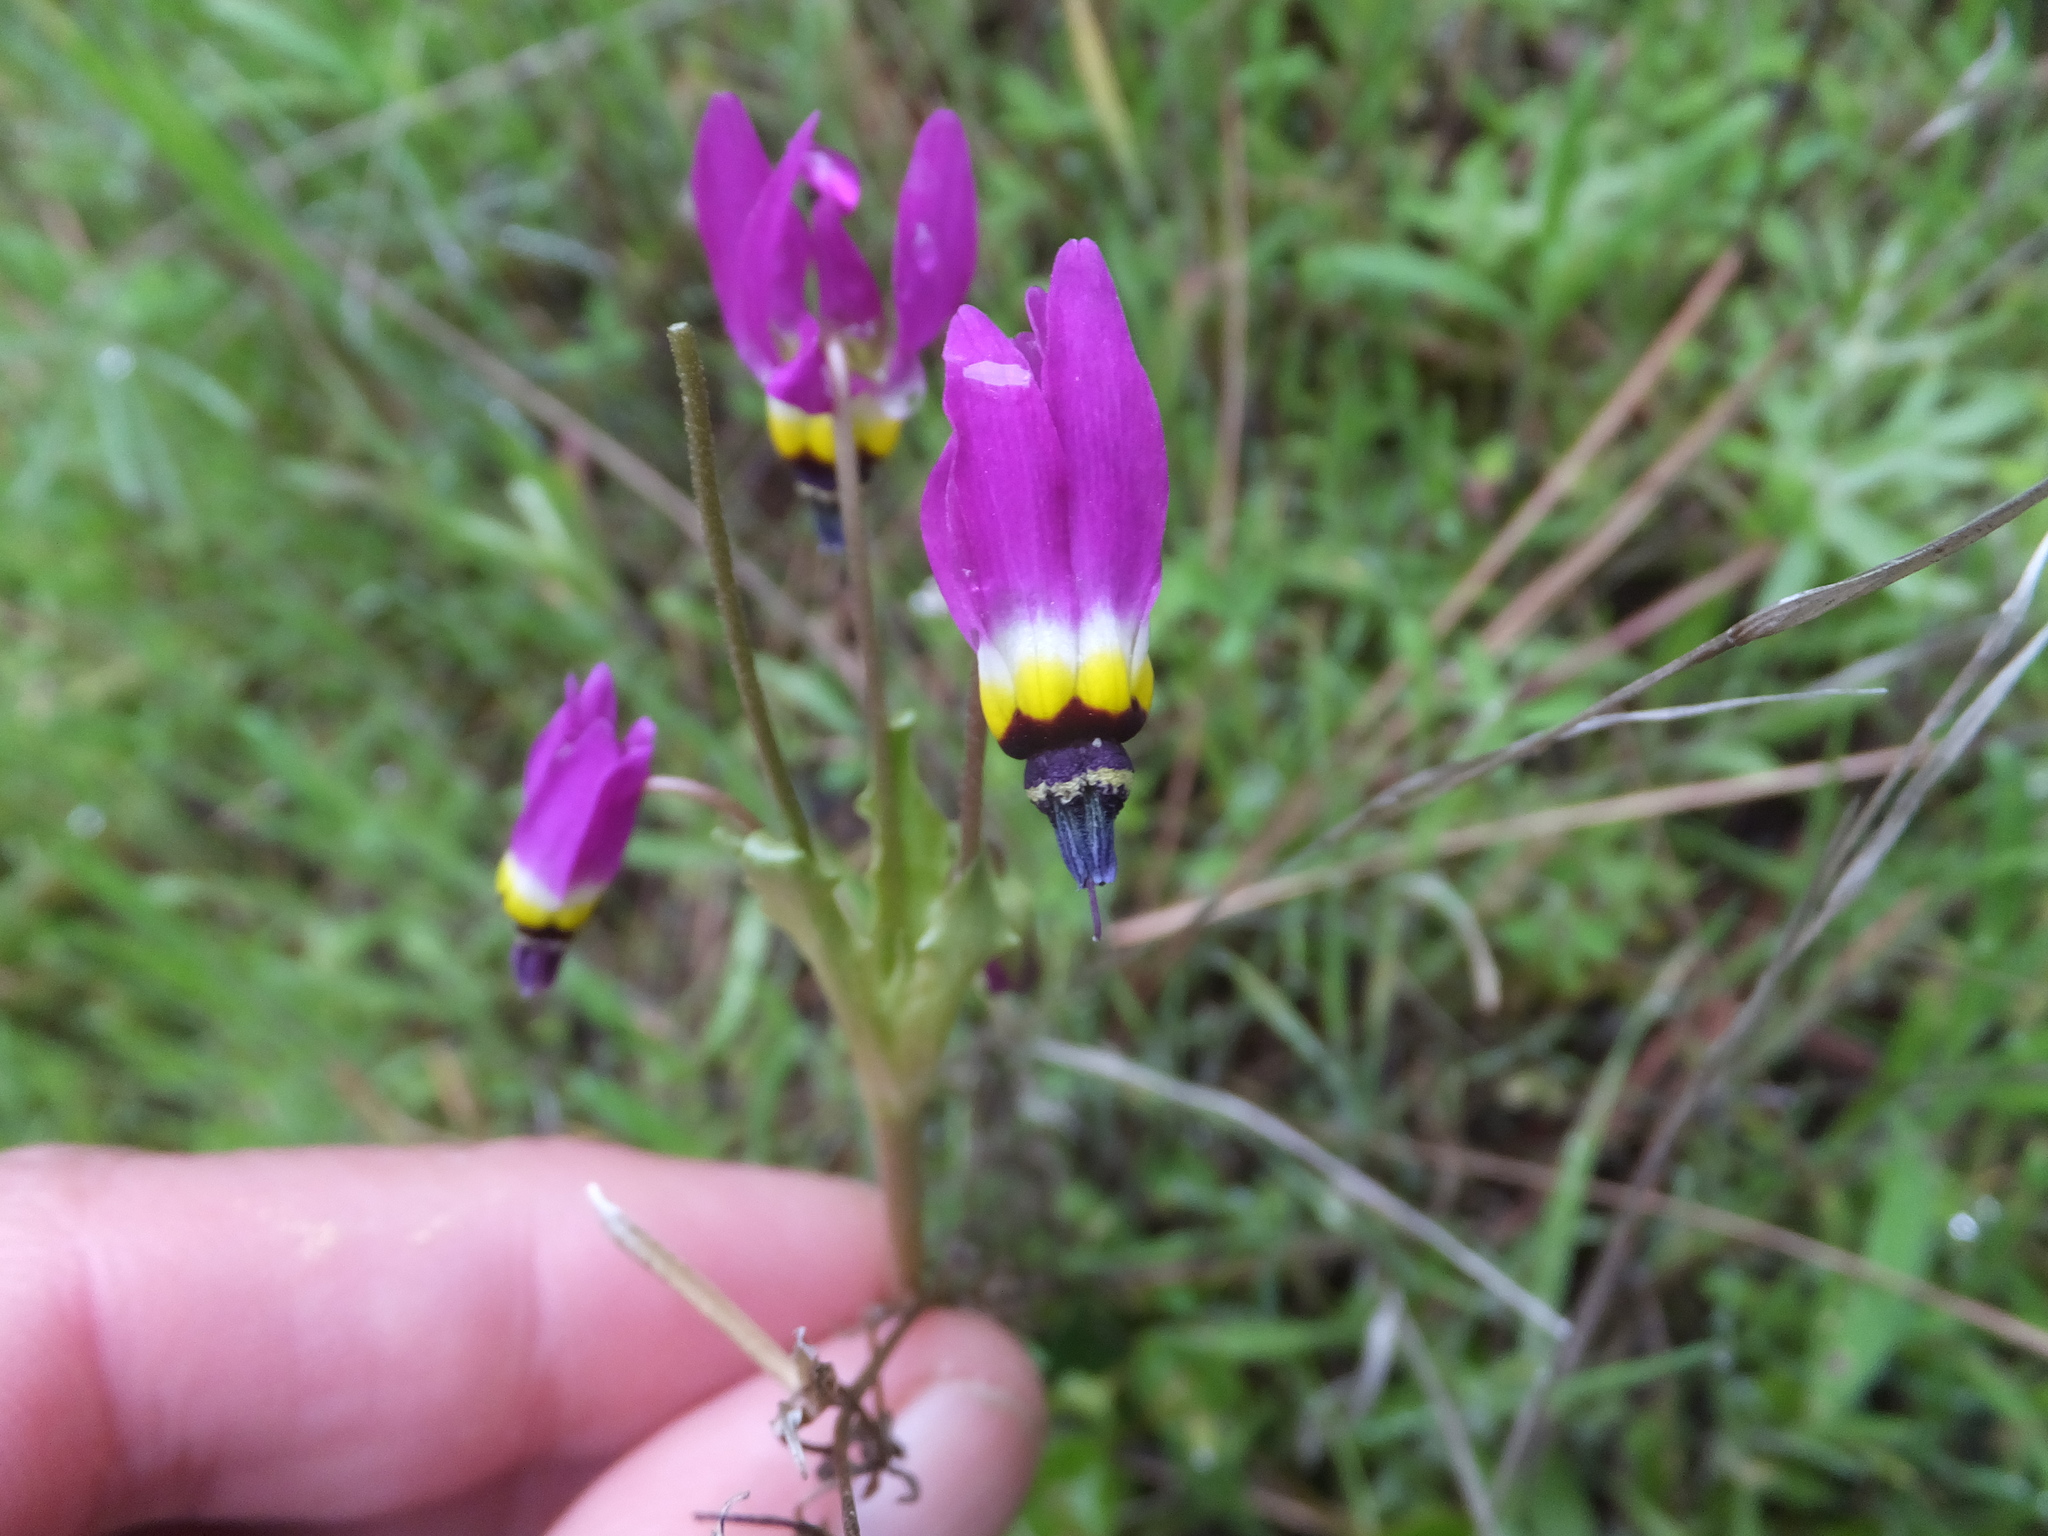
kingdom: Plantae
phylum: Tracheophyta
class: Magnoliopsida
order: Ericales
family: Primulaceae
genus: Dodecatheon
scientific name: Dodecatheon clevelandii
